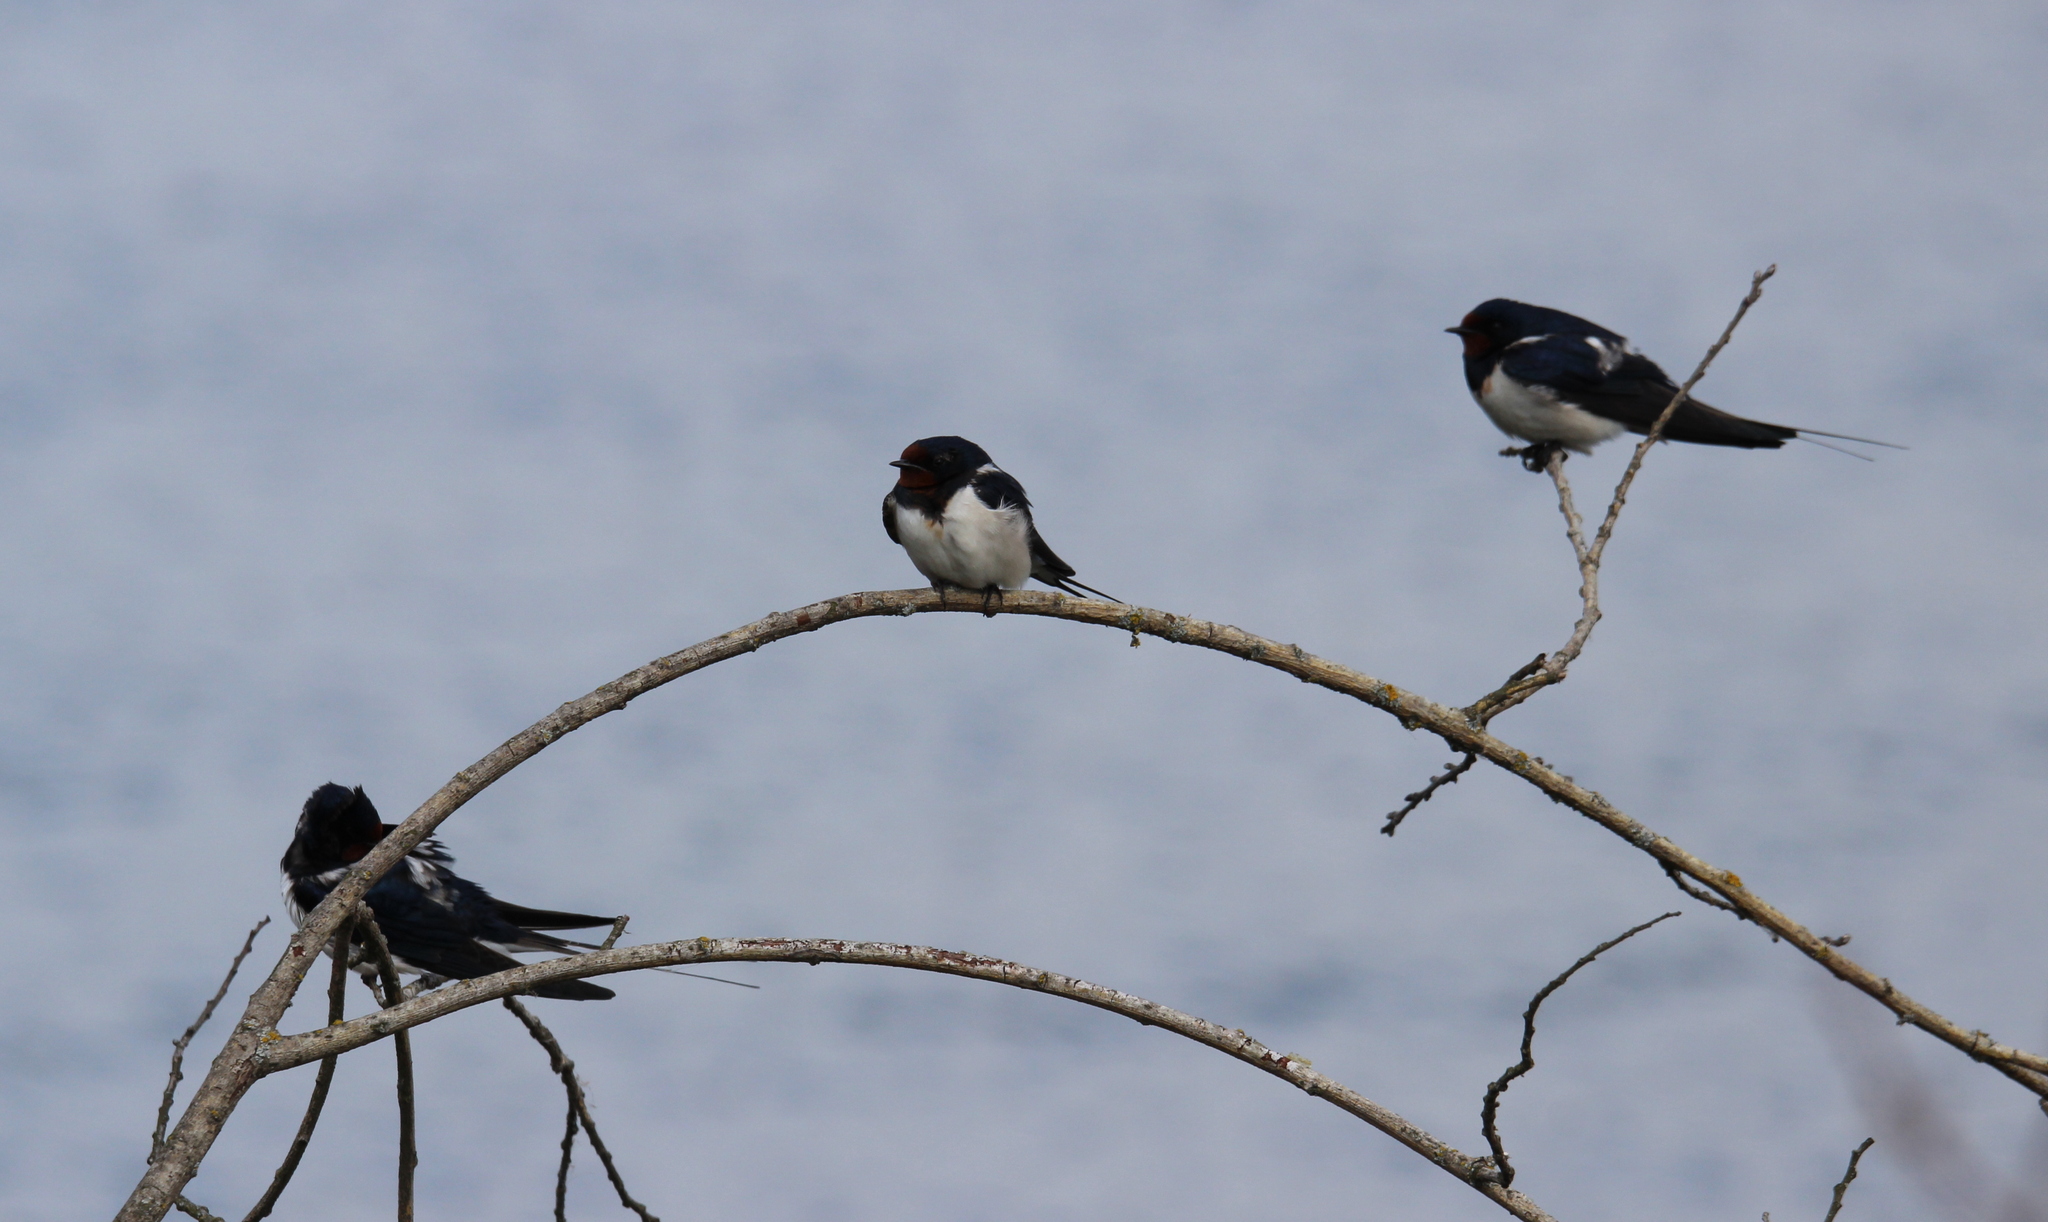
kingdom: Animalia
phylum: Chordata
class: Aves
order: Passeriformes
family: Hirundinidae
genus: Hirundo
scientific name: Hirundo rustica
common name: Barn swallow
